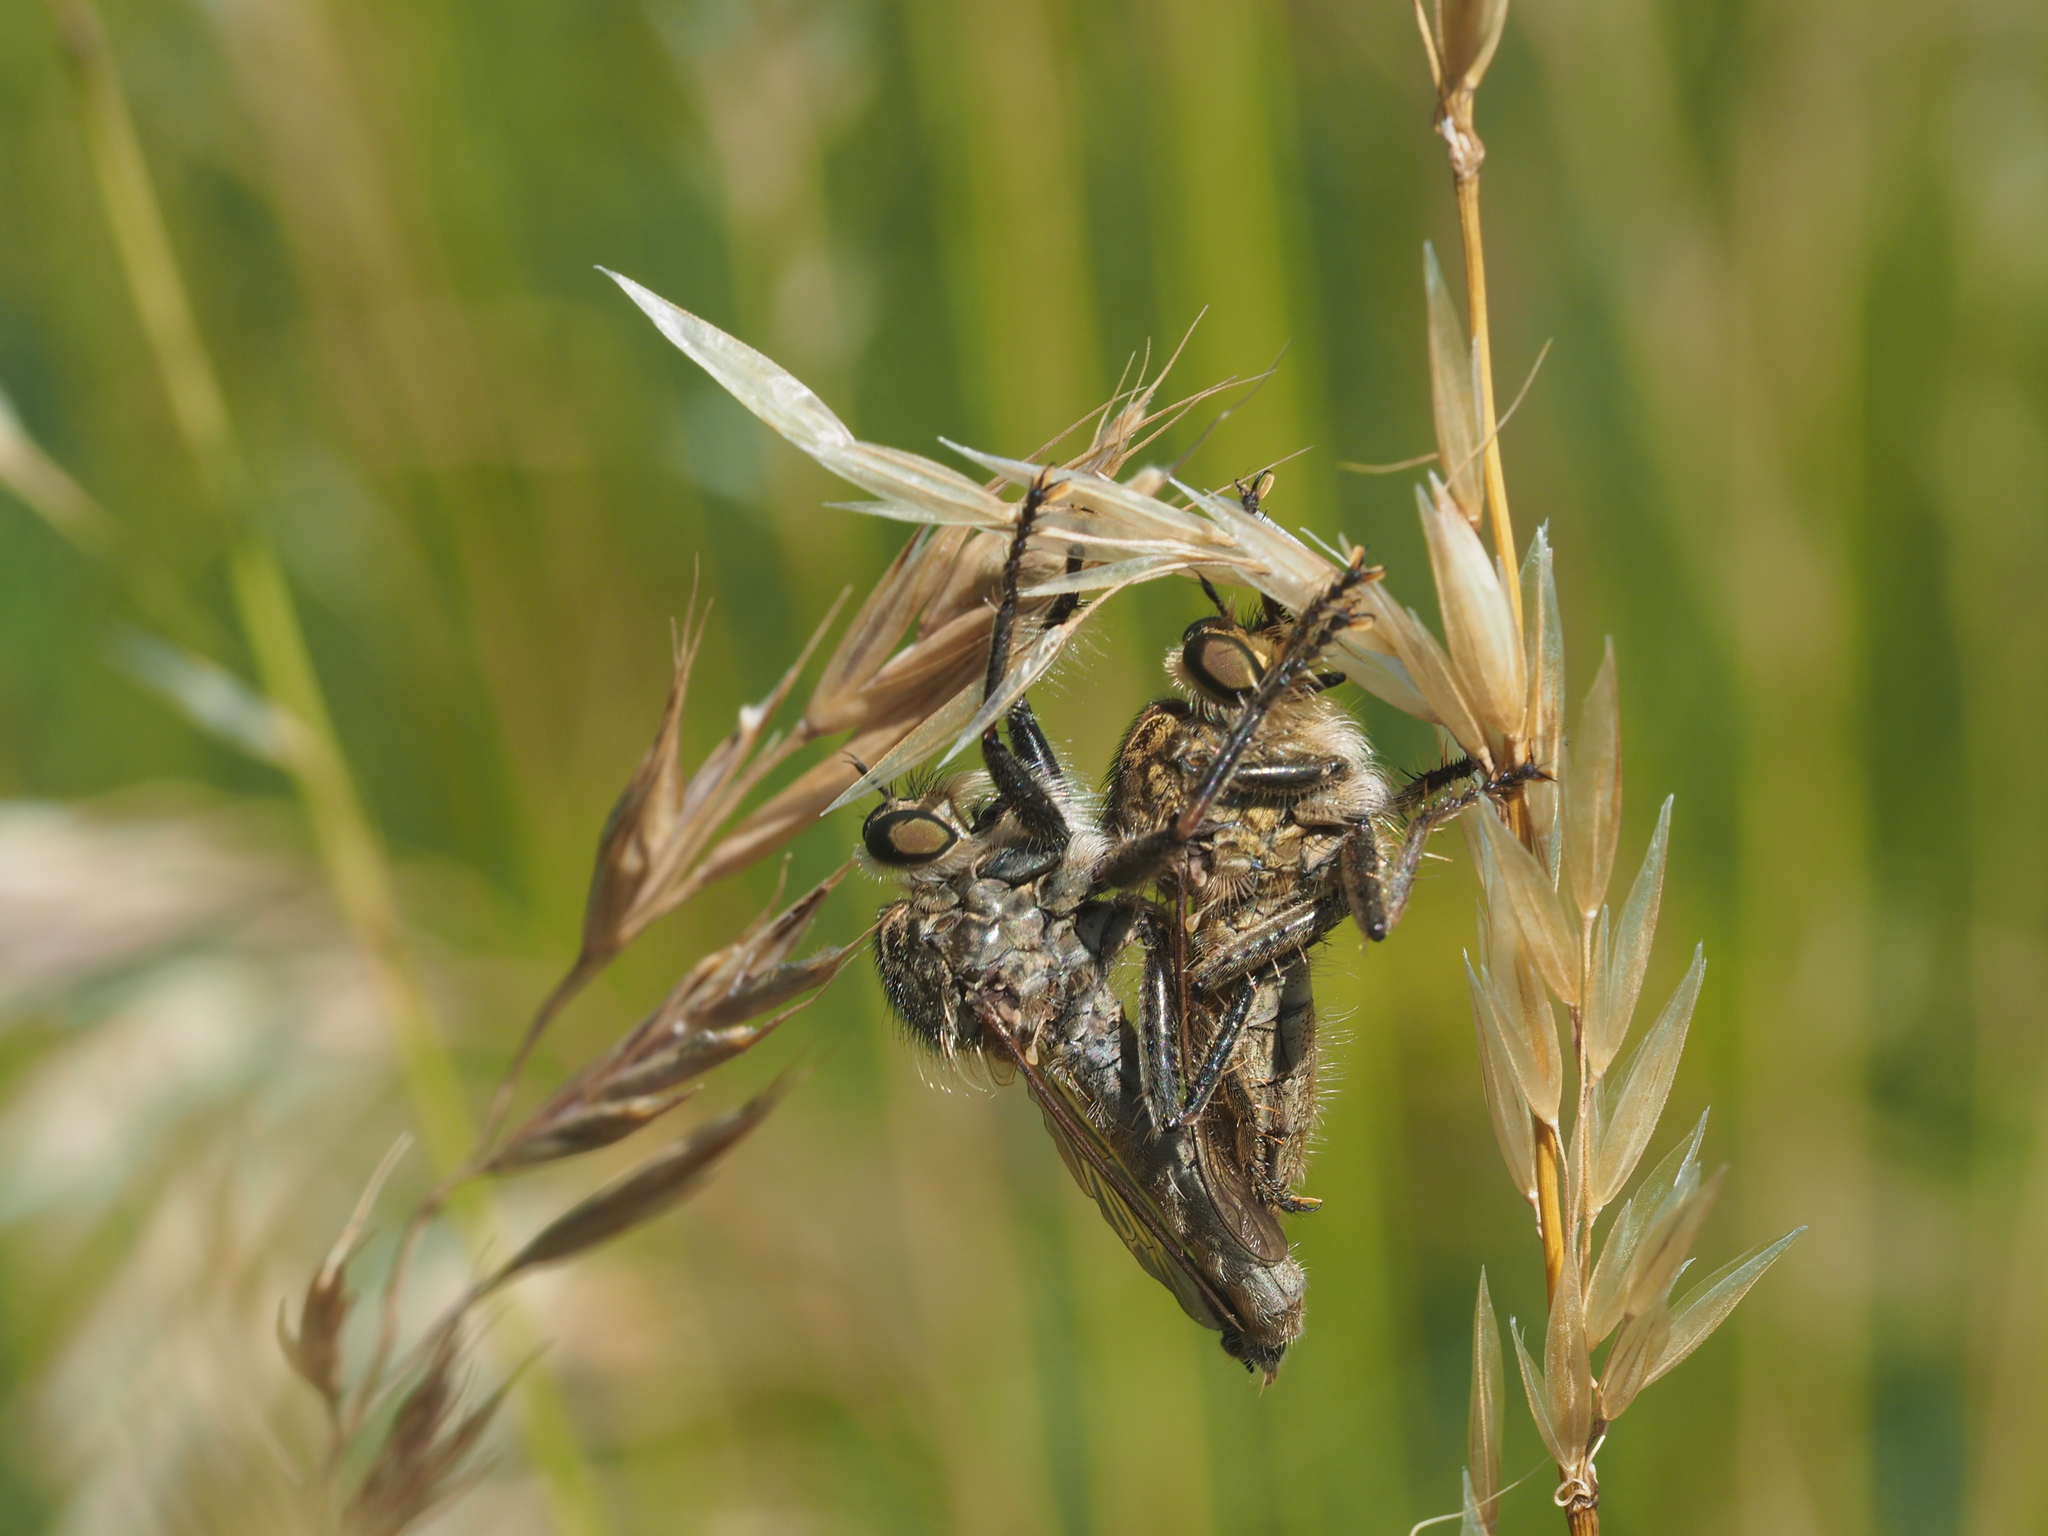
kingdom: Animalia
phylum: Arthropoda
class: Insecta
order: Diptera
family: Asilidae
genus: Machimus
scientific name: Machimus rusticus
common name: Downland robberfly
